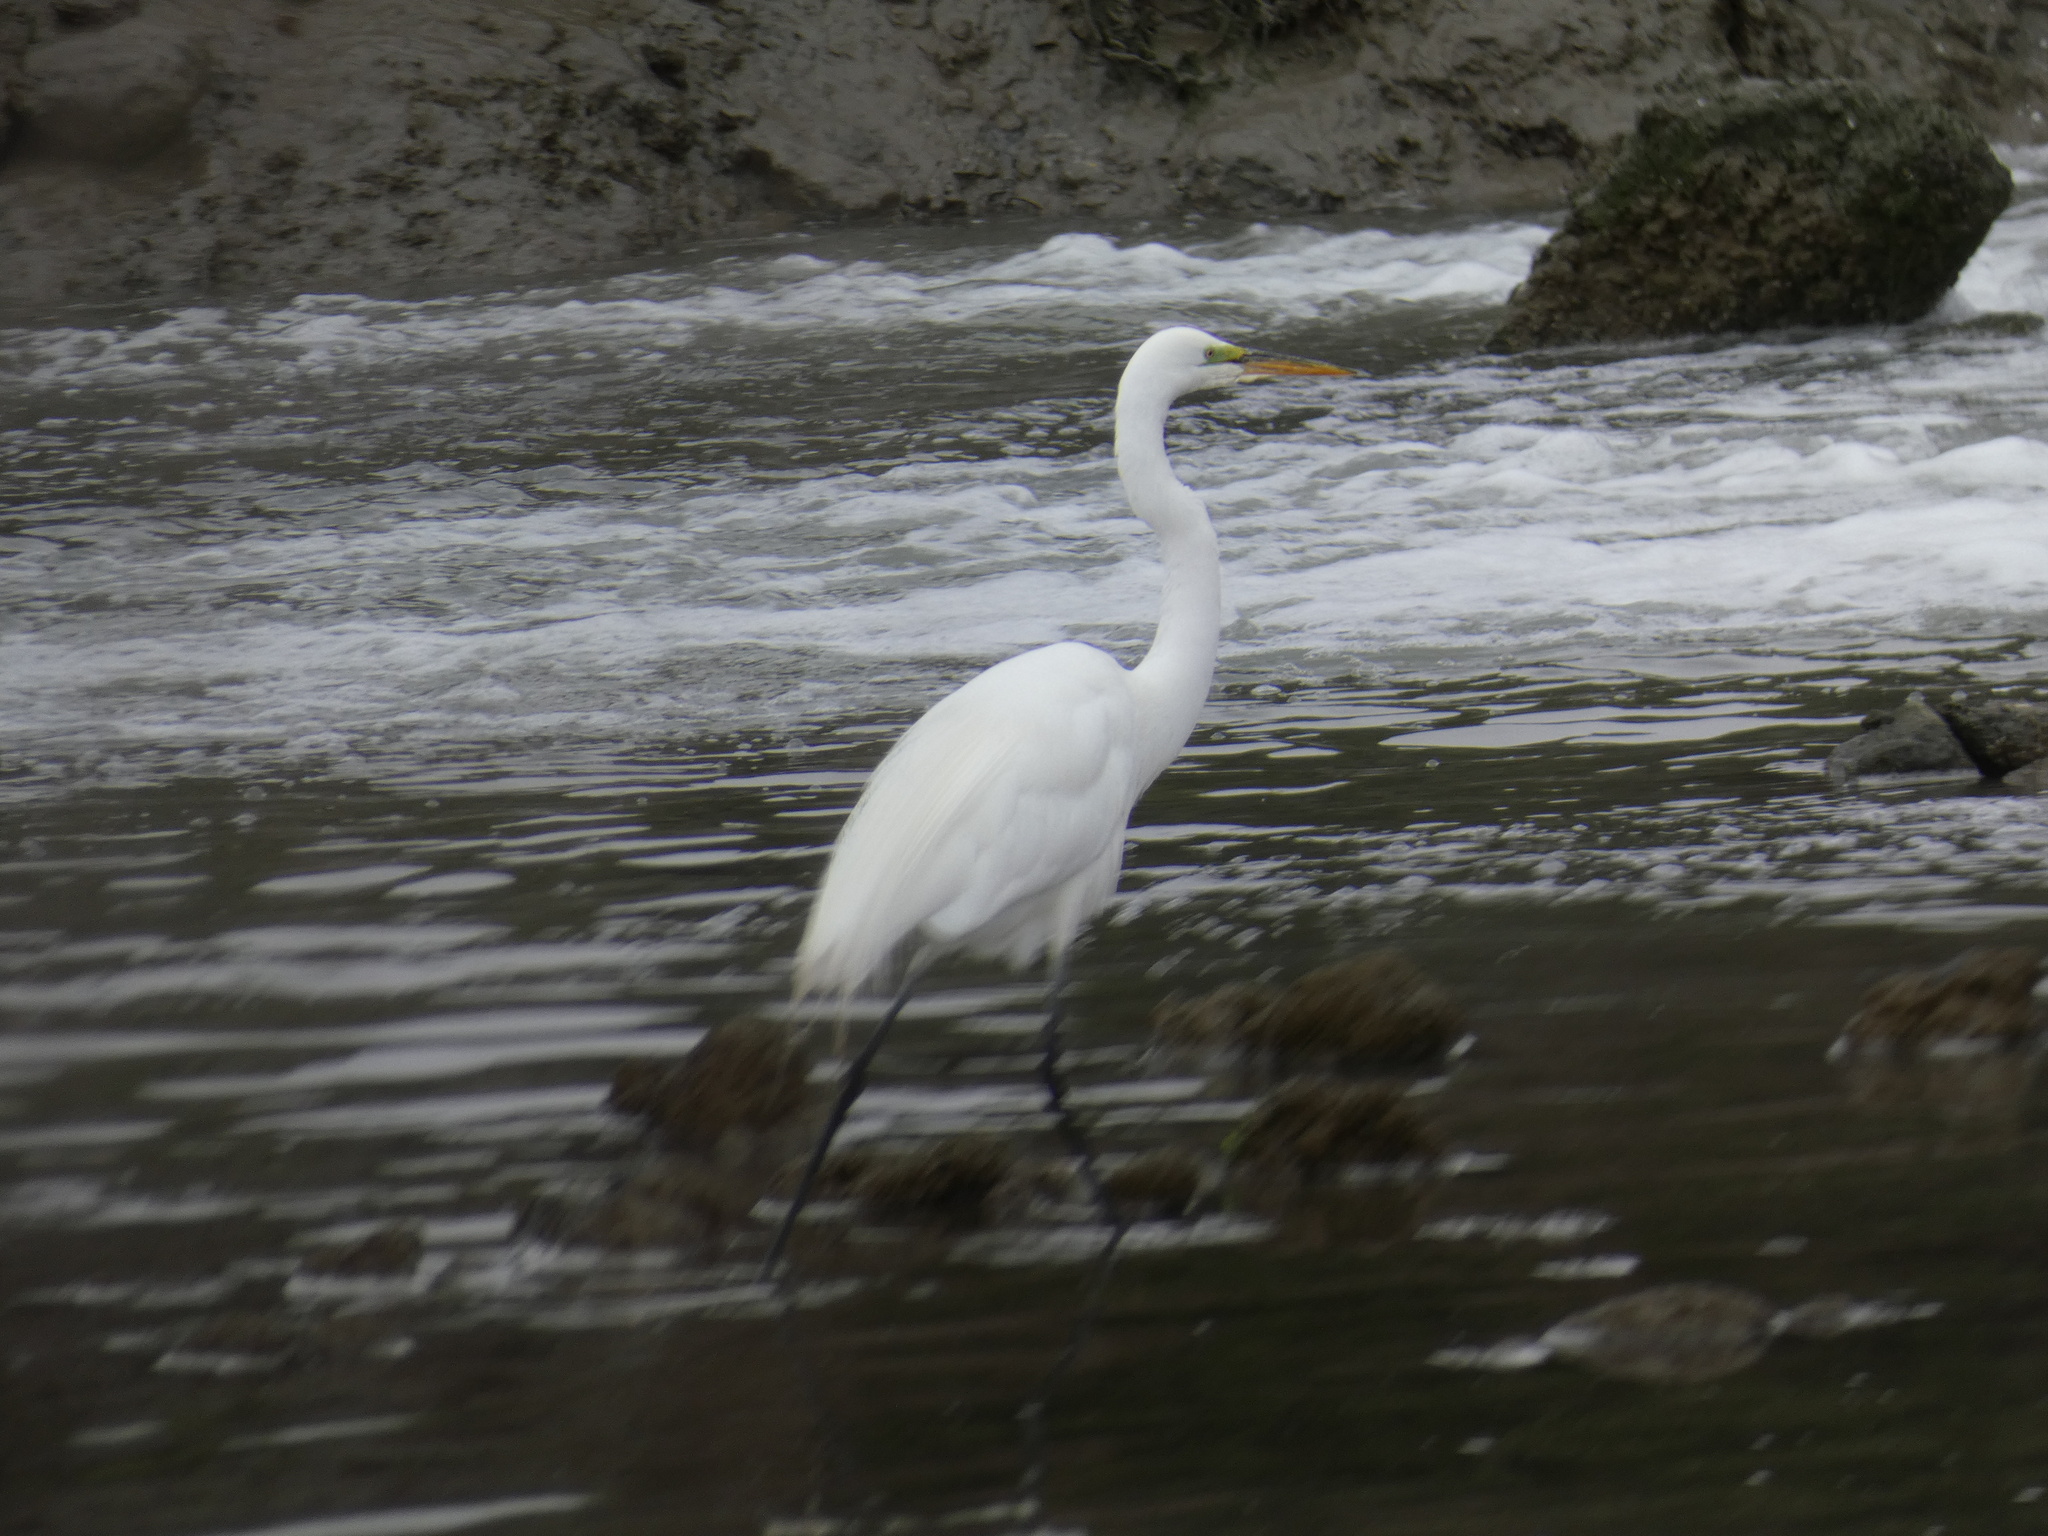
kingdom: Animalia
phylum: Chordata
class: Aves
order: Pelecaniformes
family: Ardeidae
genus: Ardea
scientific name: Ardea alba
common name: Great egret
